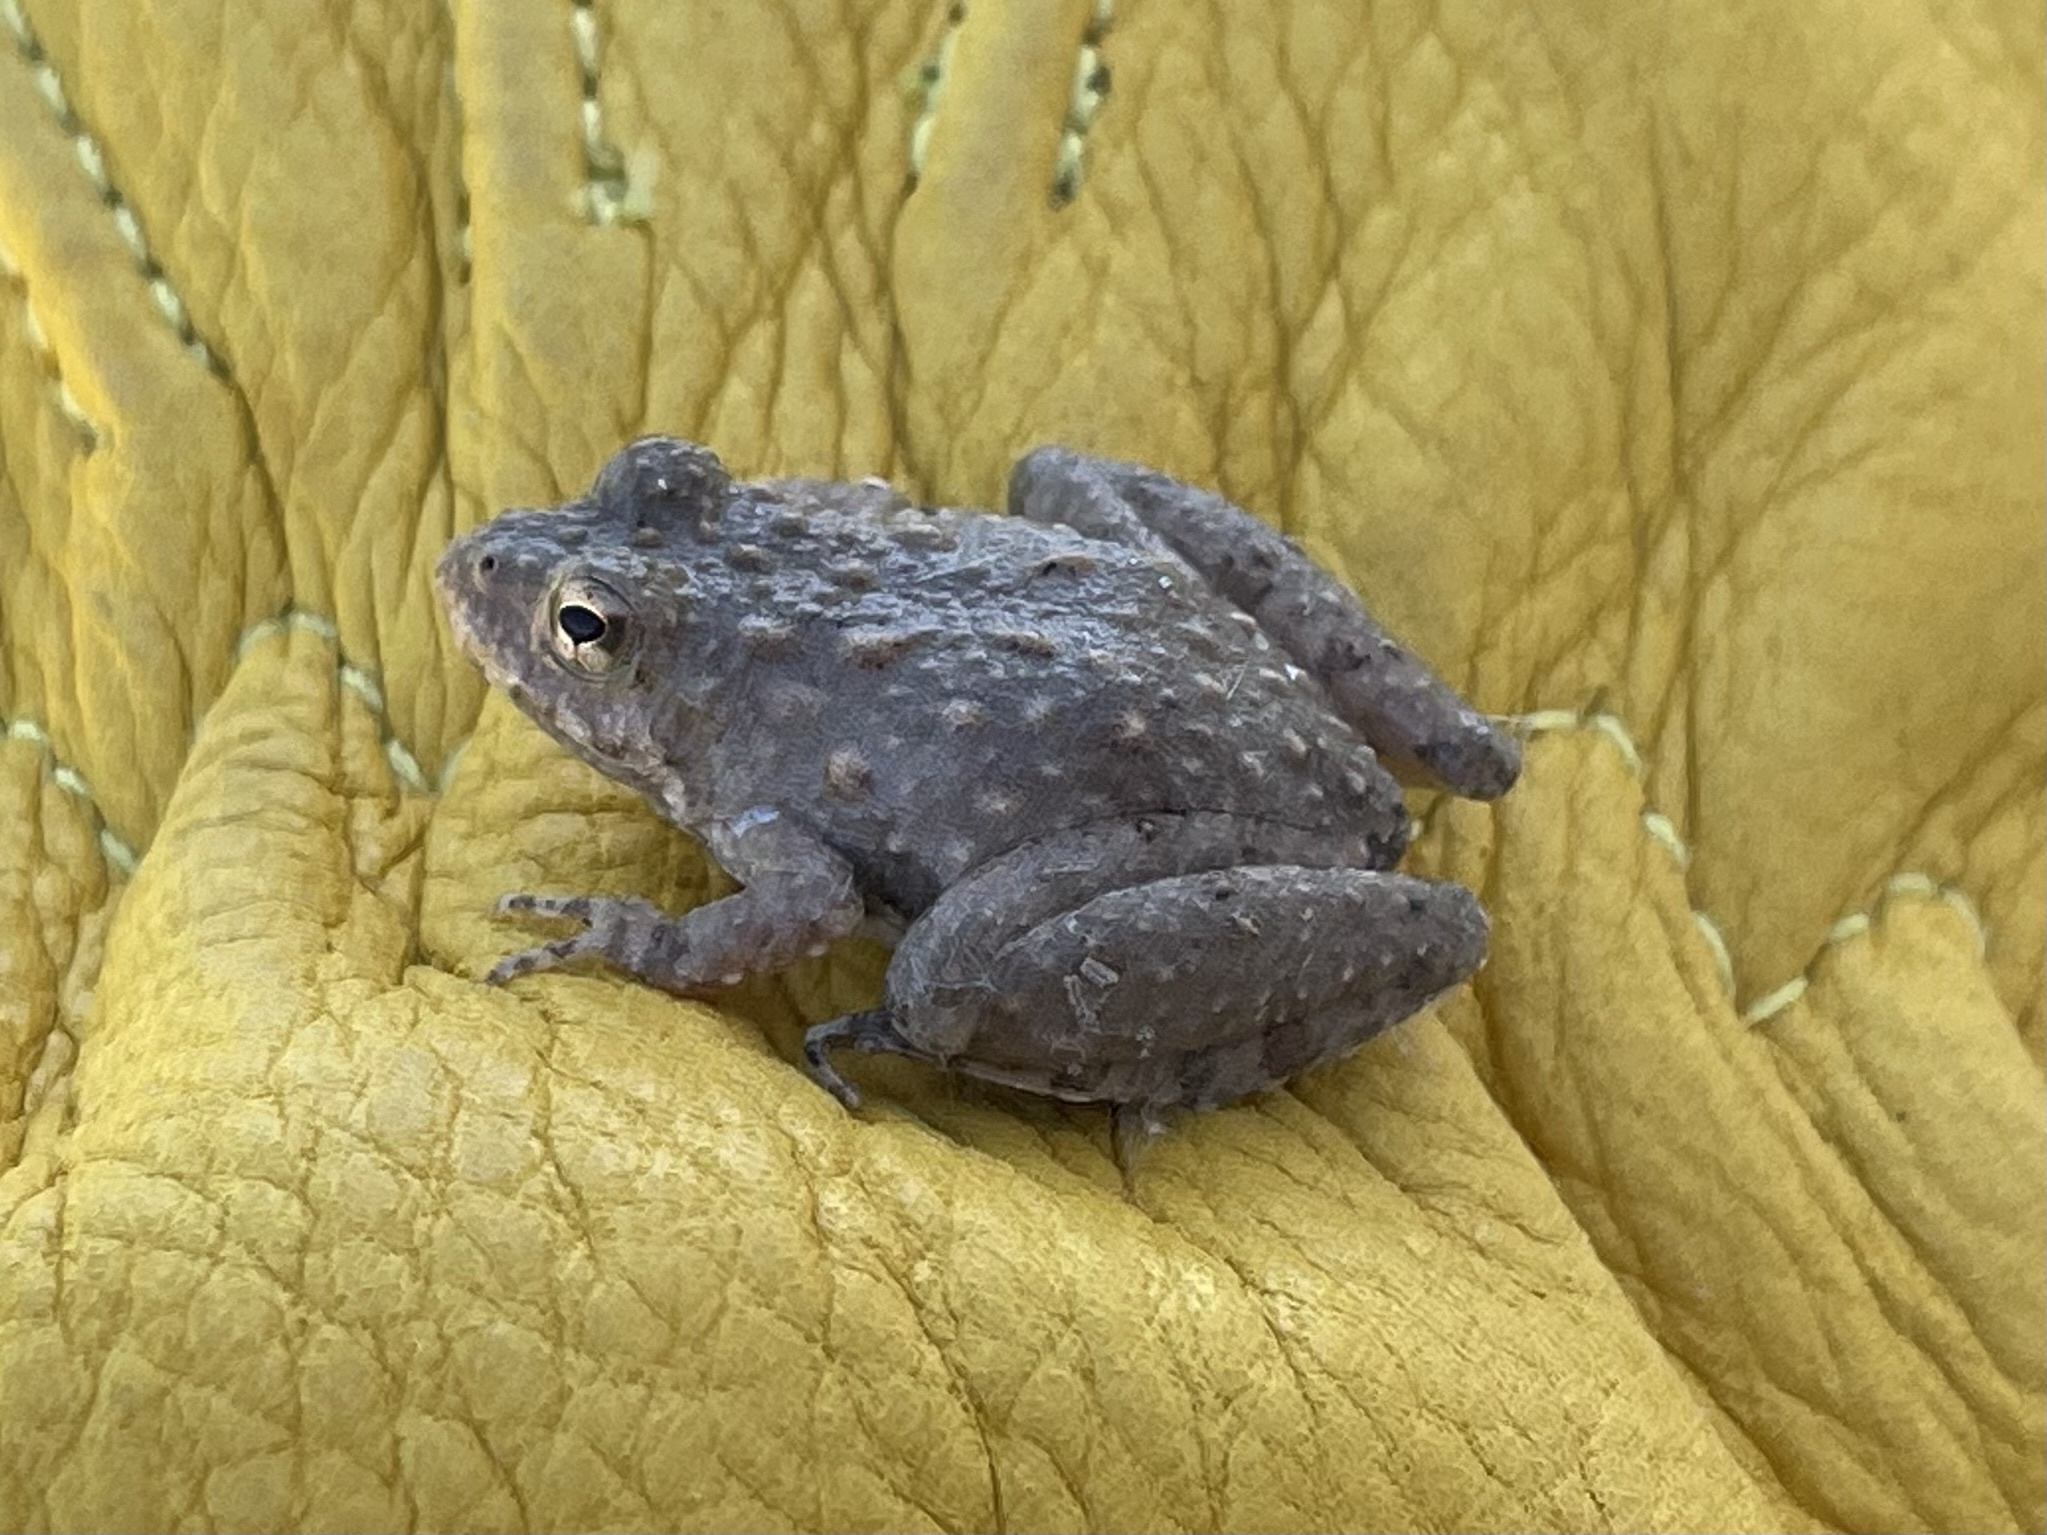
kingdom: Animalia
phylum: Chordata
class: Amphibia
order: Anura
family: Hylidae
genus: Acris
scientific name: Acris blanchardi
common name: Blanchard's cricket frog
